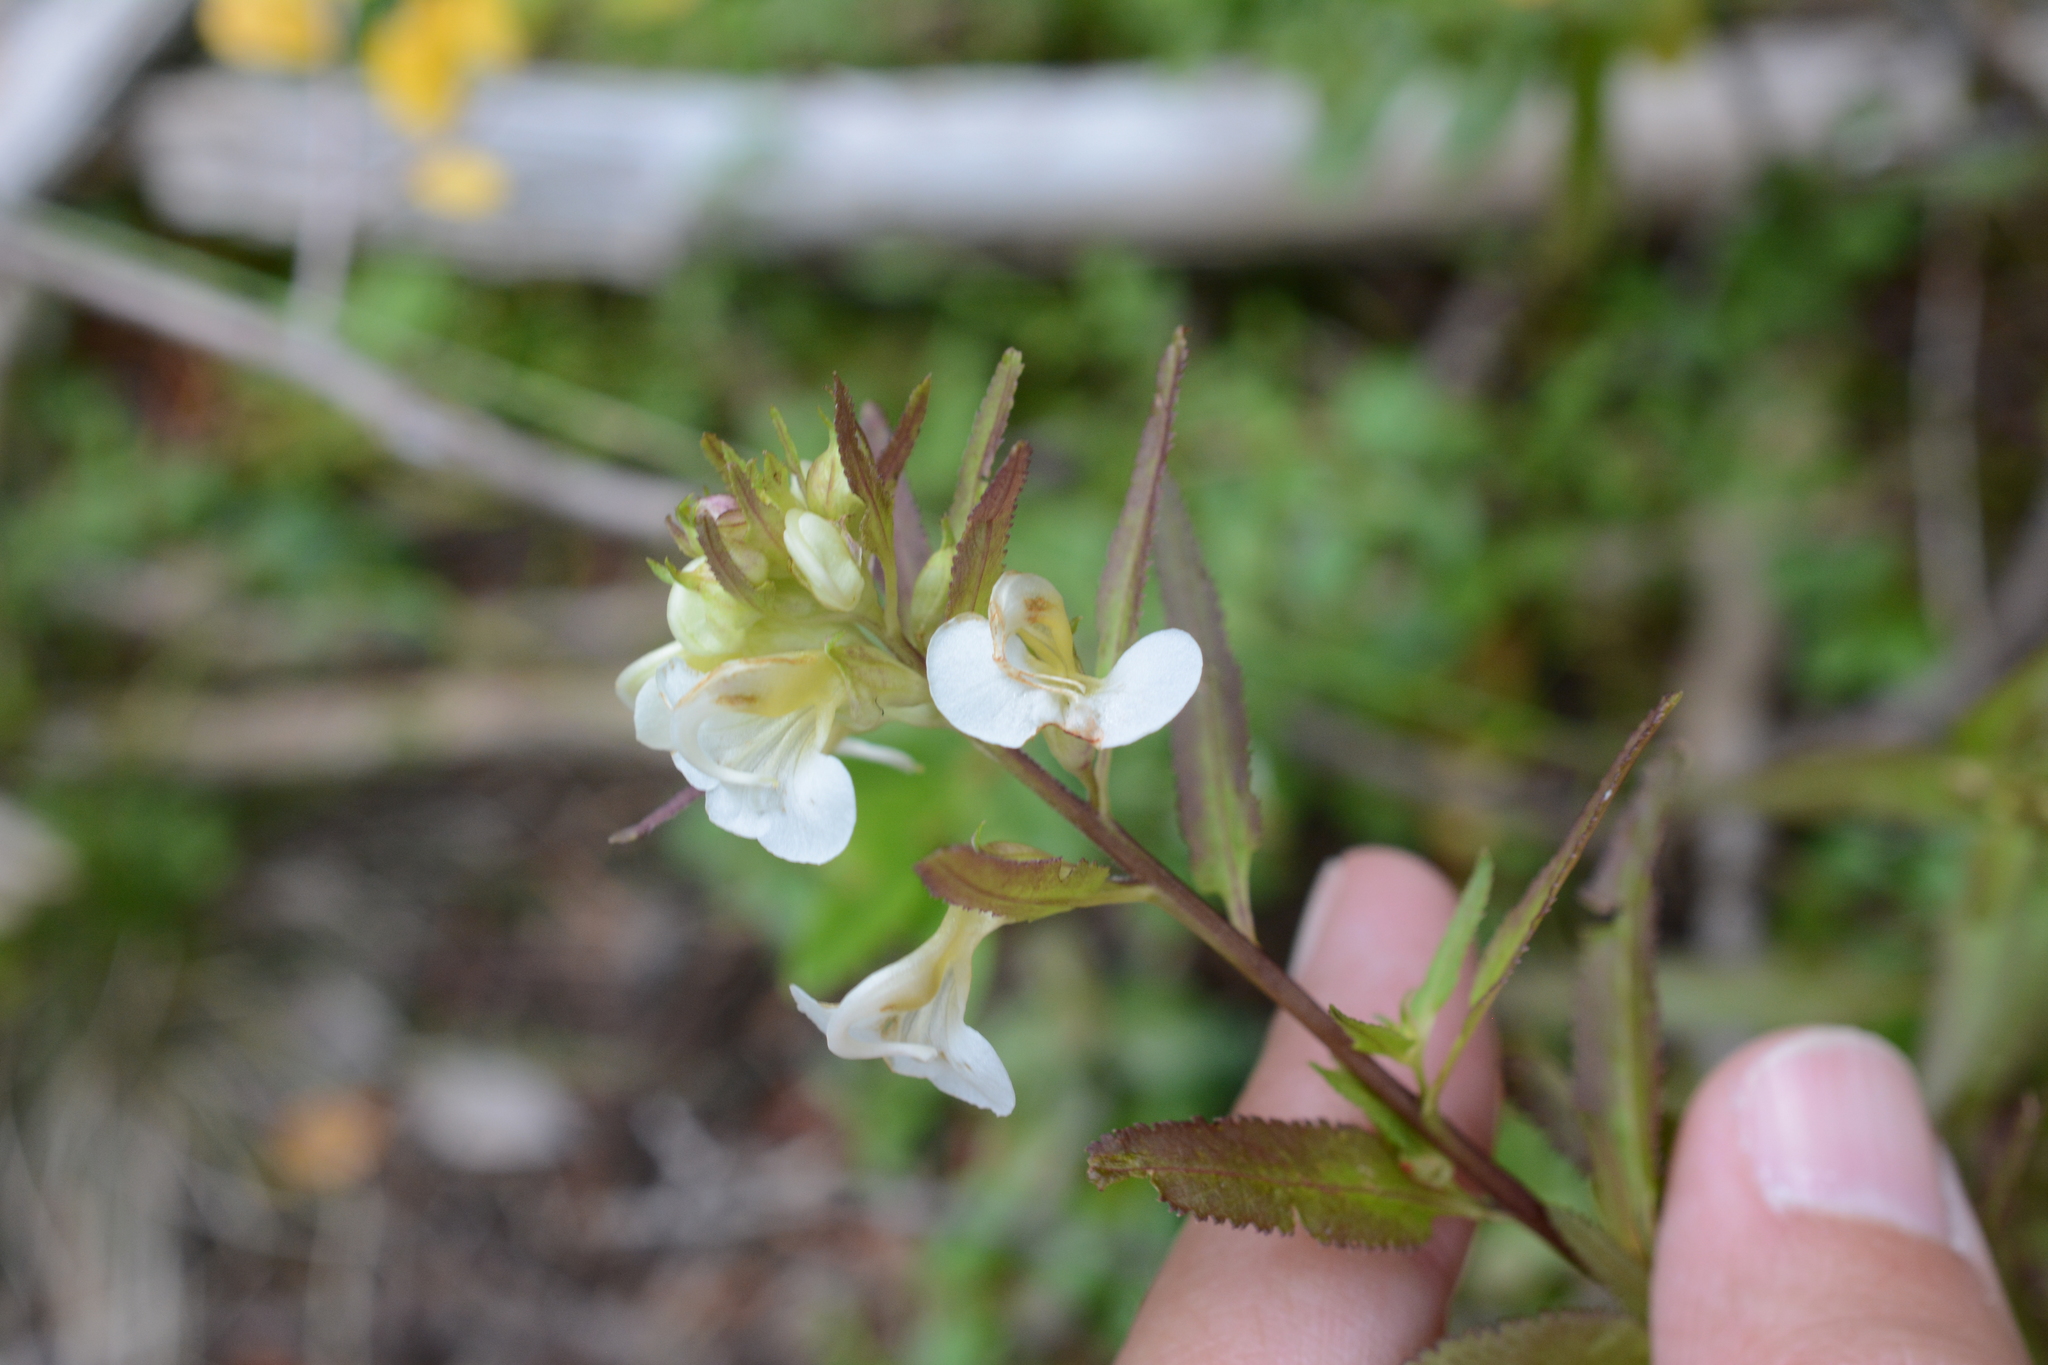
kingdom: Plantae
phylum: Tracheophyta
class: Magnoliopsida
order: Lamiales
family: Orobanchaceae
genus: Pedicularis
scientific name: Pedicularis racemosa
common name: Leafy lousewort
